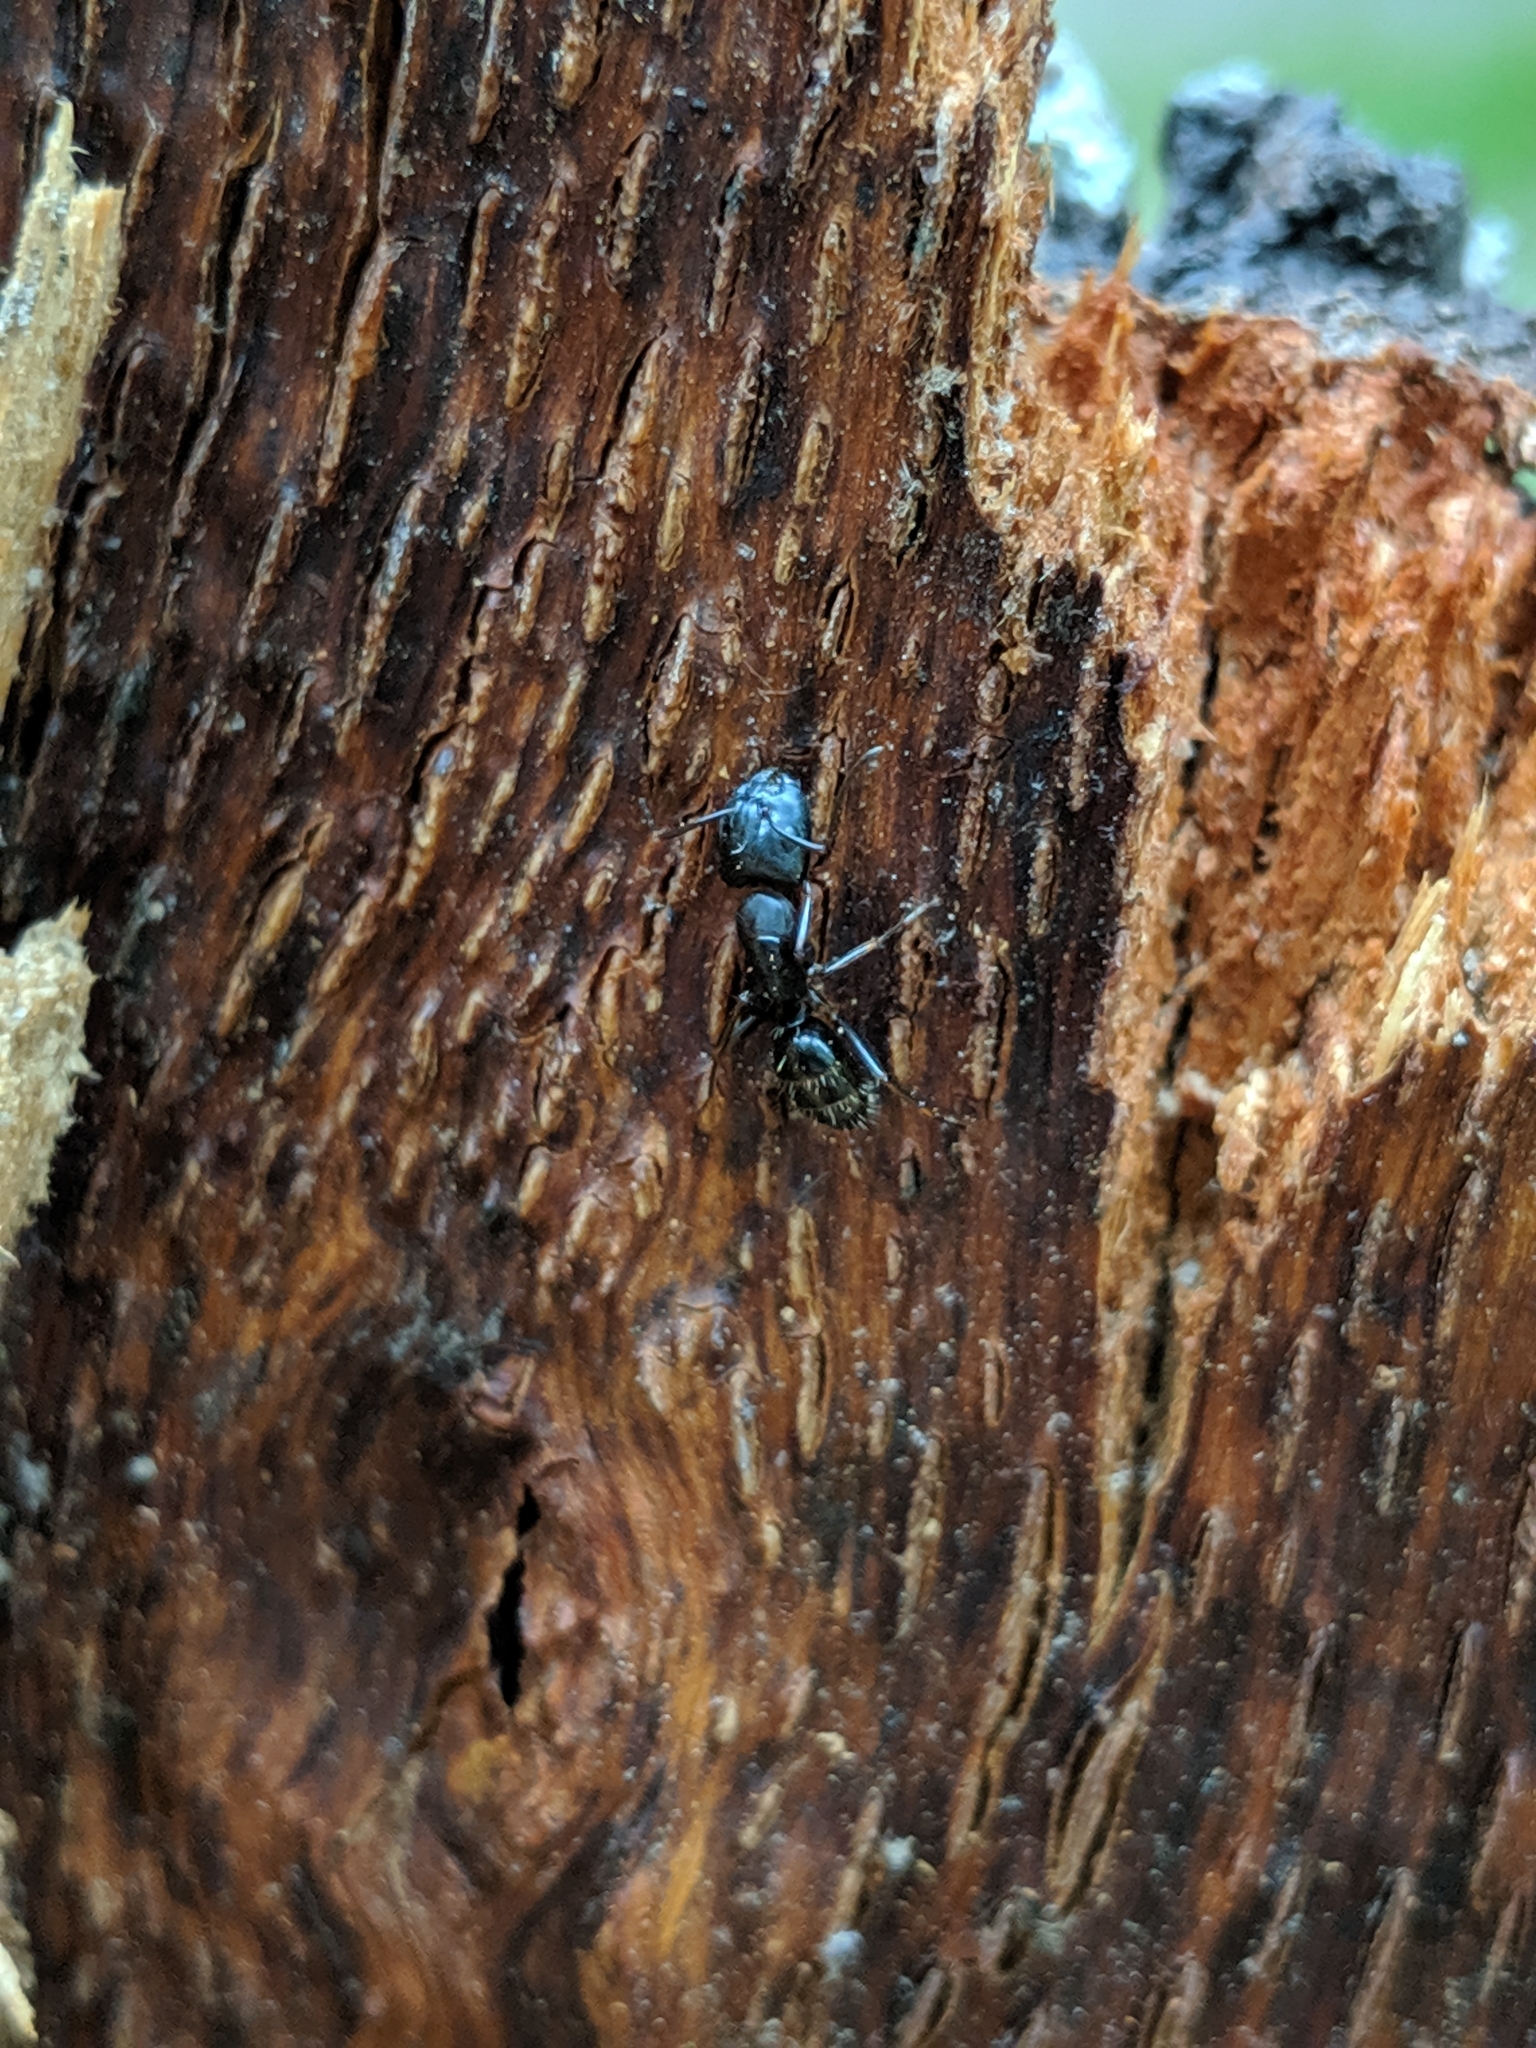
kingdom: Animalia
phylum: Arthropoda
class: Insecta
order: Hymenoptera
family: Formicidae
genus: Camponotus
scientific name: Camponotus nearcticus
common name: Smaller carpenter ant
